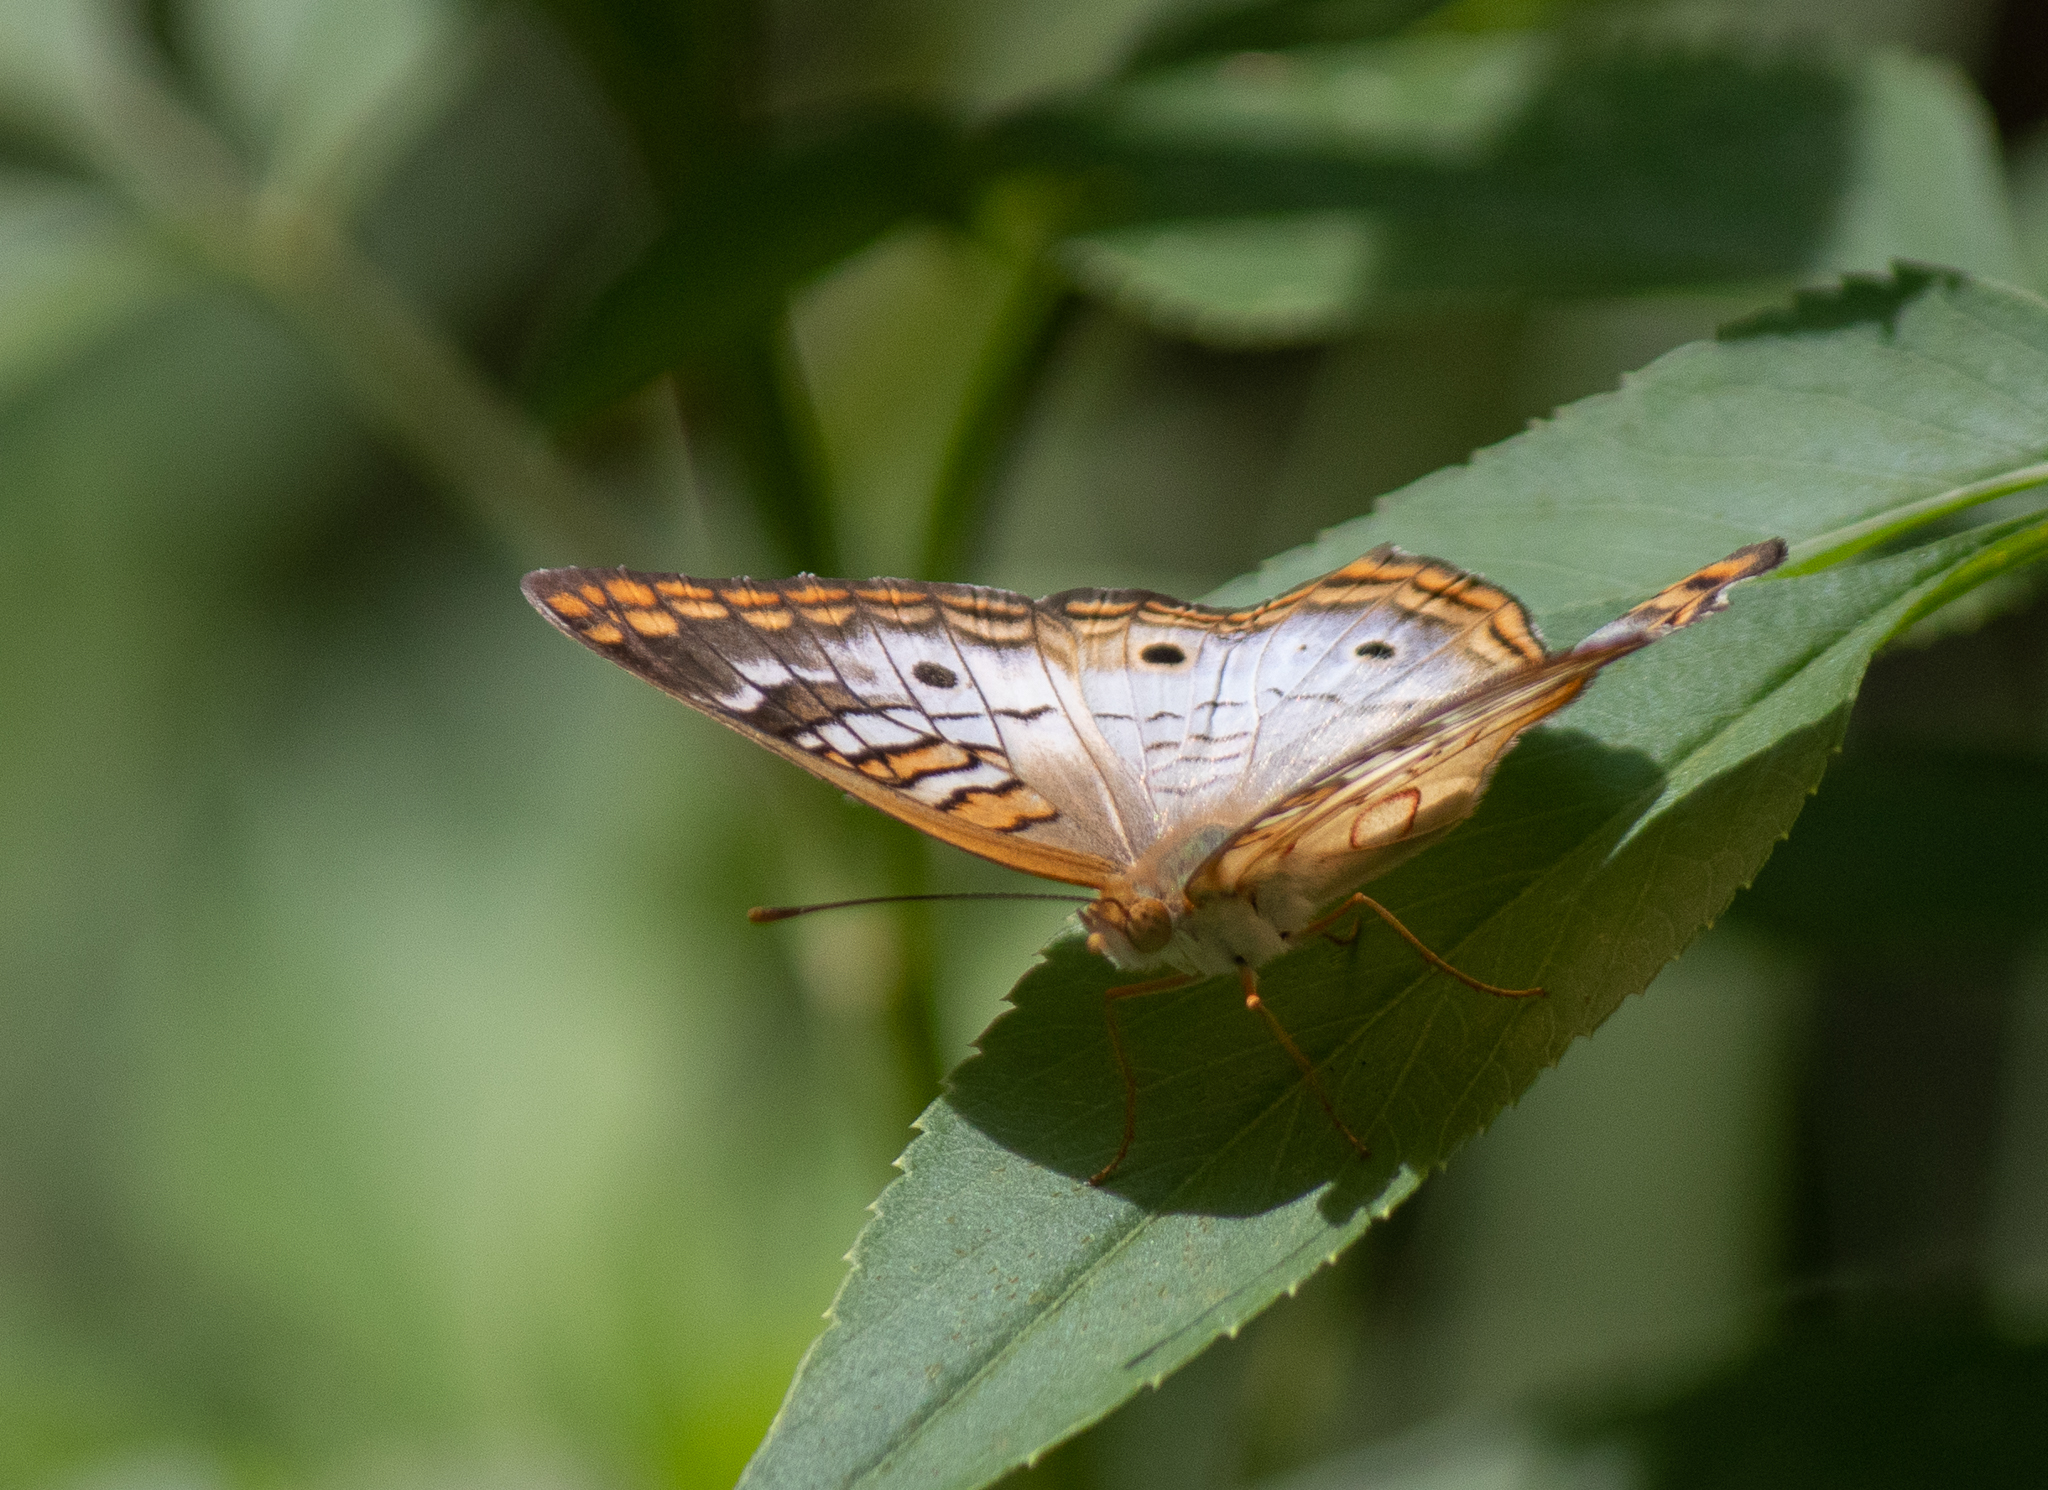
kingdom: Animalia
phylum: Arthropoda
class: Insecta
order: Lepidoptera
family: Nymphalidae
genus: Anartia
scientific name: Anartia jatrophae
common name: White peacock
